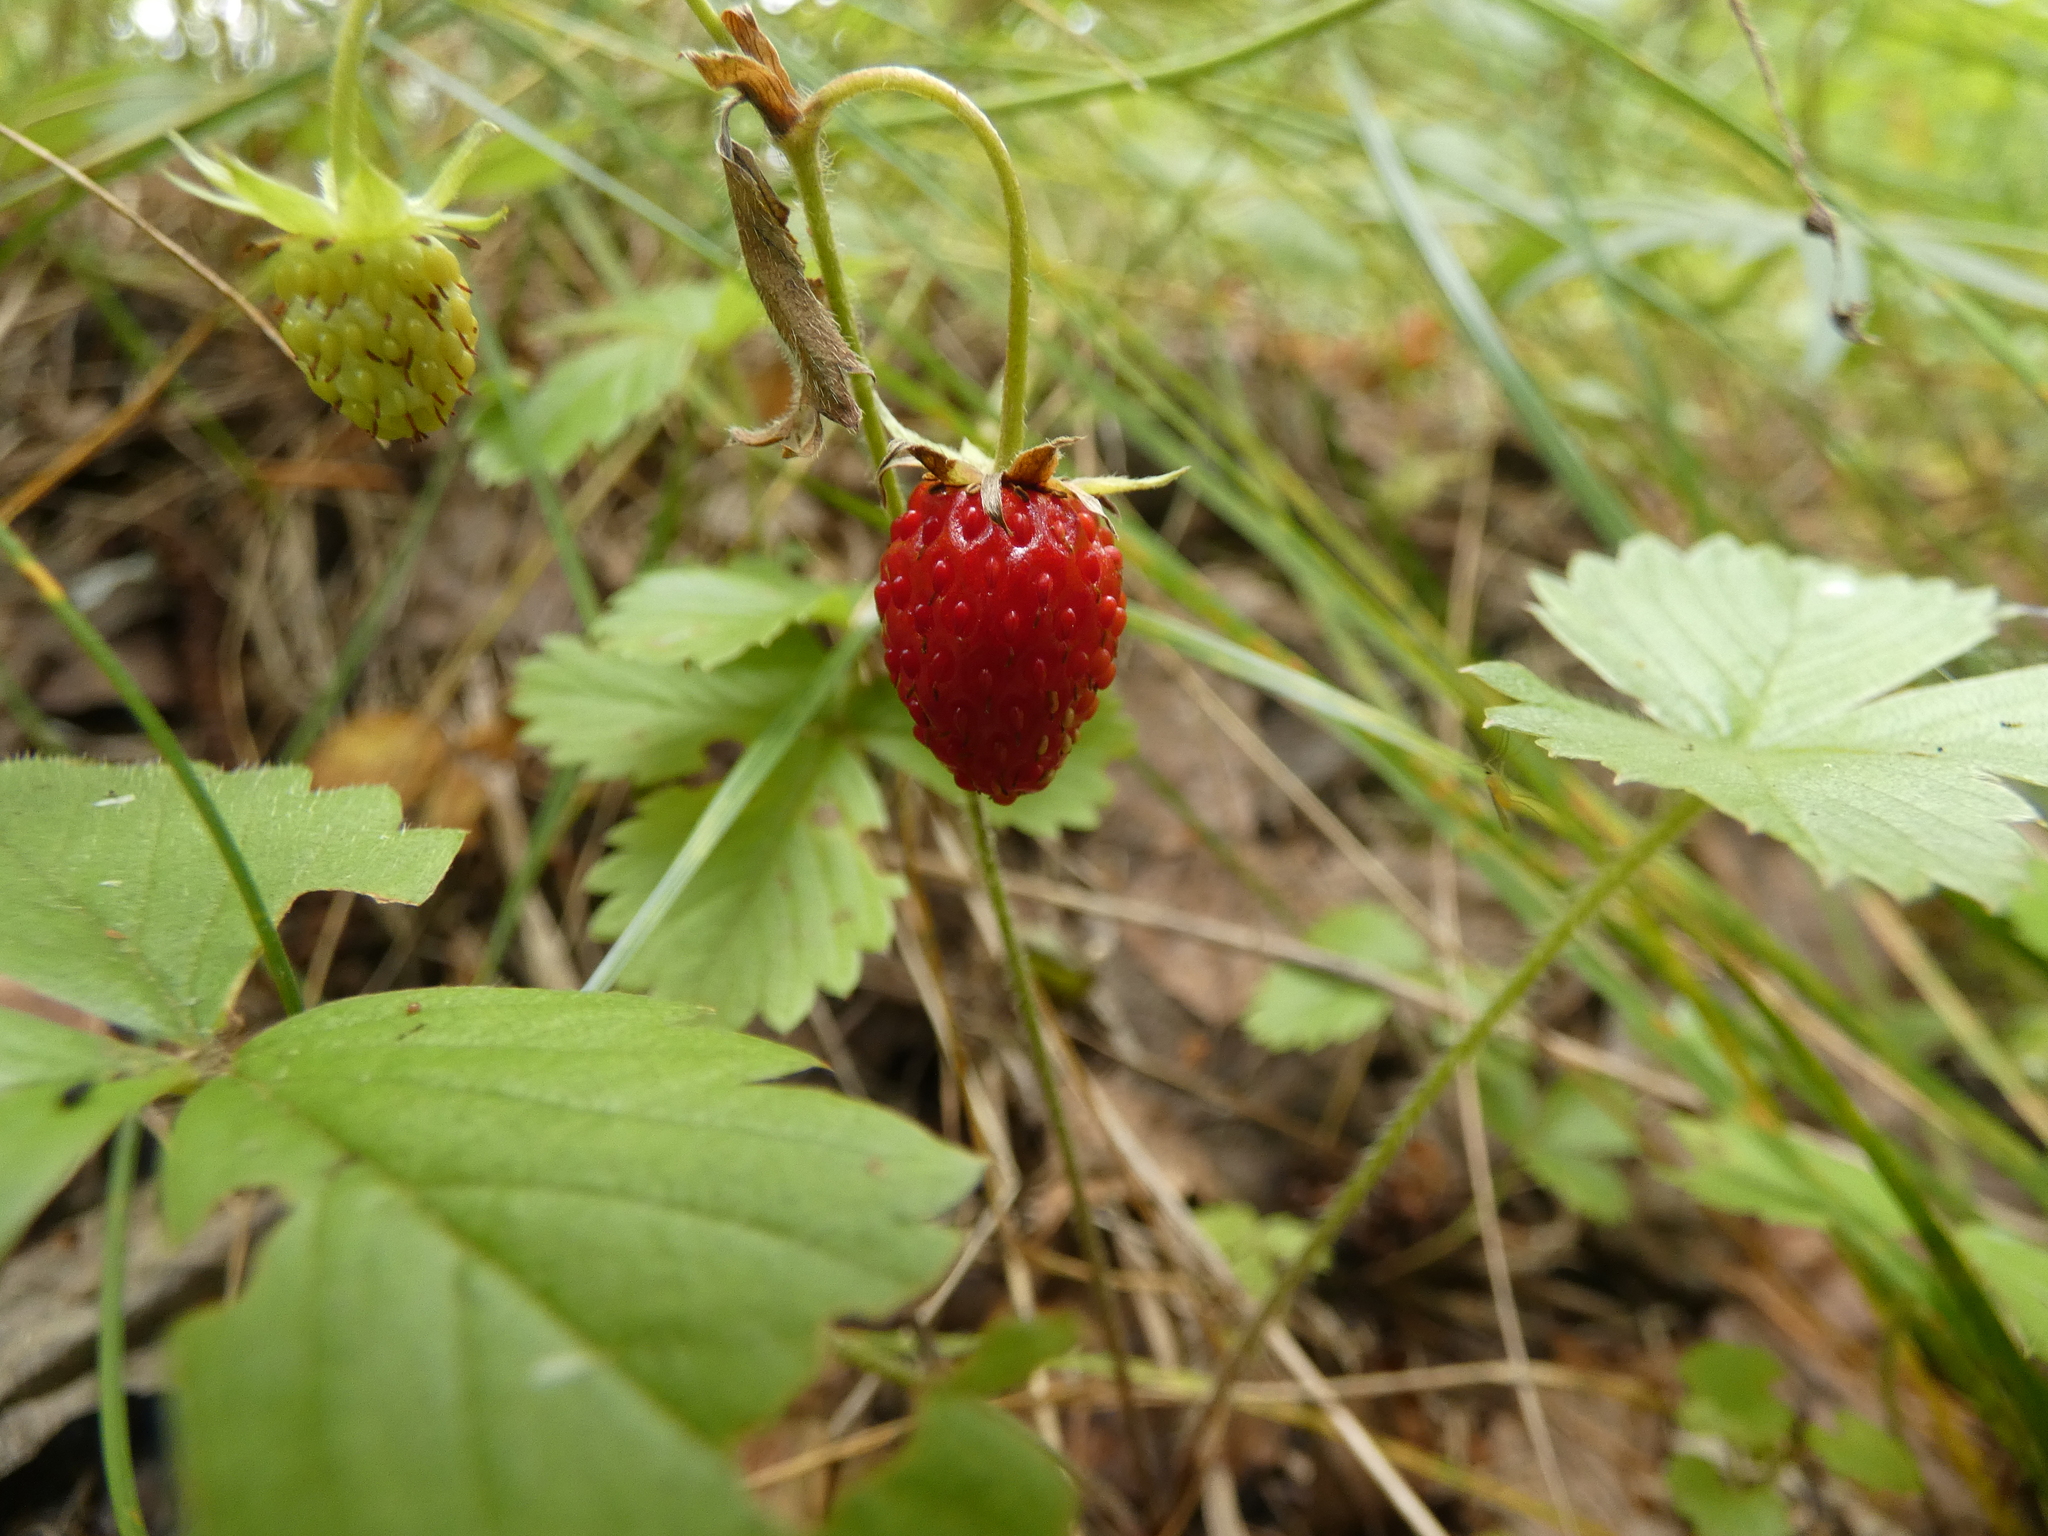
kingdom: Plantae
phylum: Tracheophyta
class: Magnoliopsida
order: Rosales
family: Rosaceae
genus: Fragaria
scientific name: Fragaria vesca
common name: Wild strawberry
